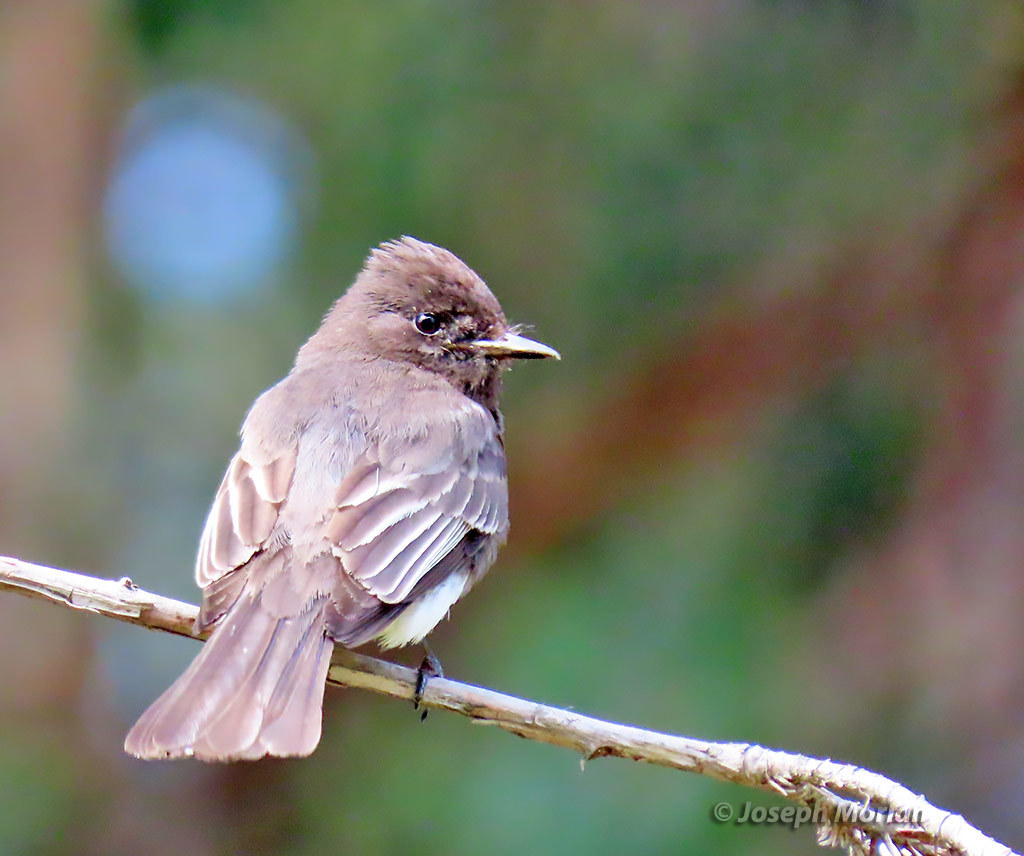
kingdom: Animalia
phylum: Chordata
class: Aves
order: Passeriformes
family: Tyrannidae
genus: Sayornis
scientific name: Sayornis nigricans
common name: Black phoebe
